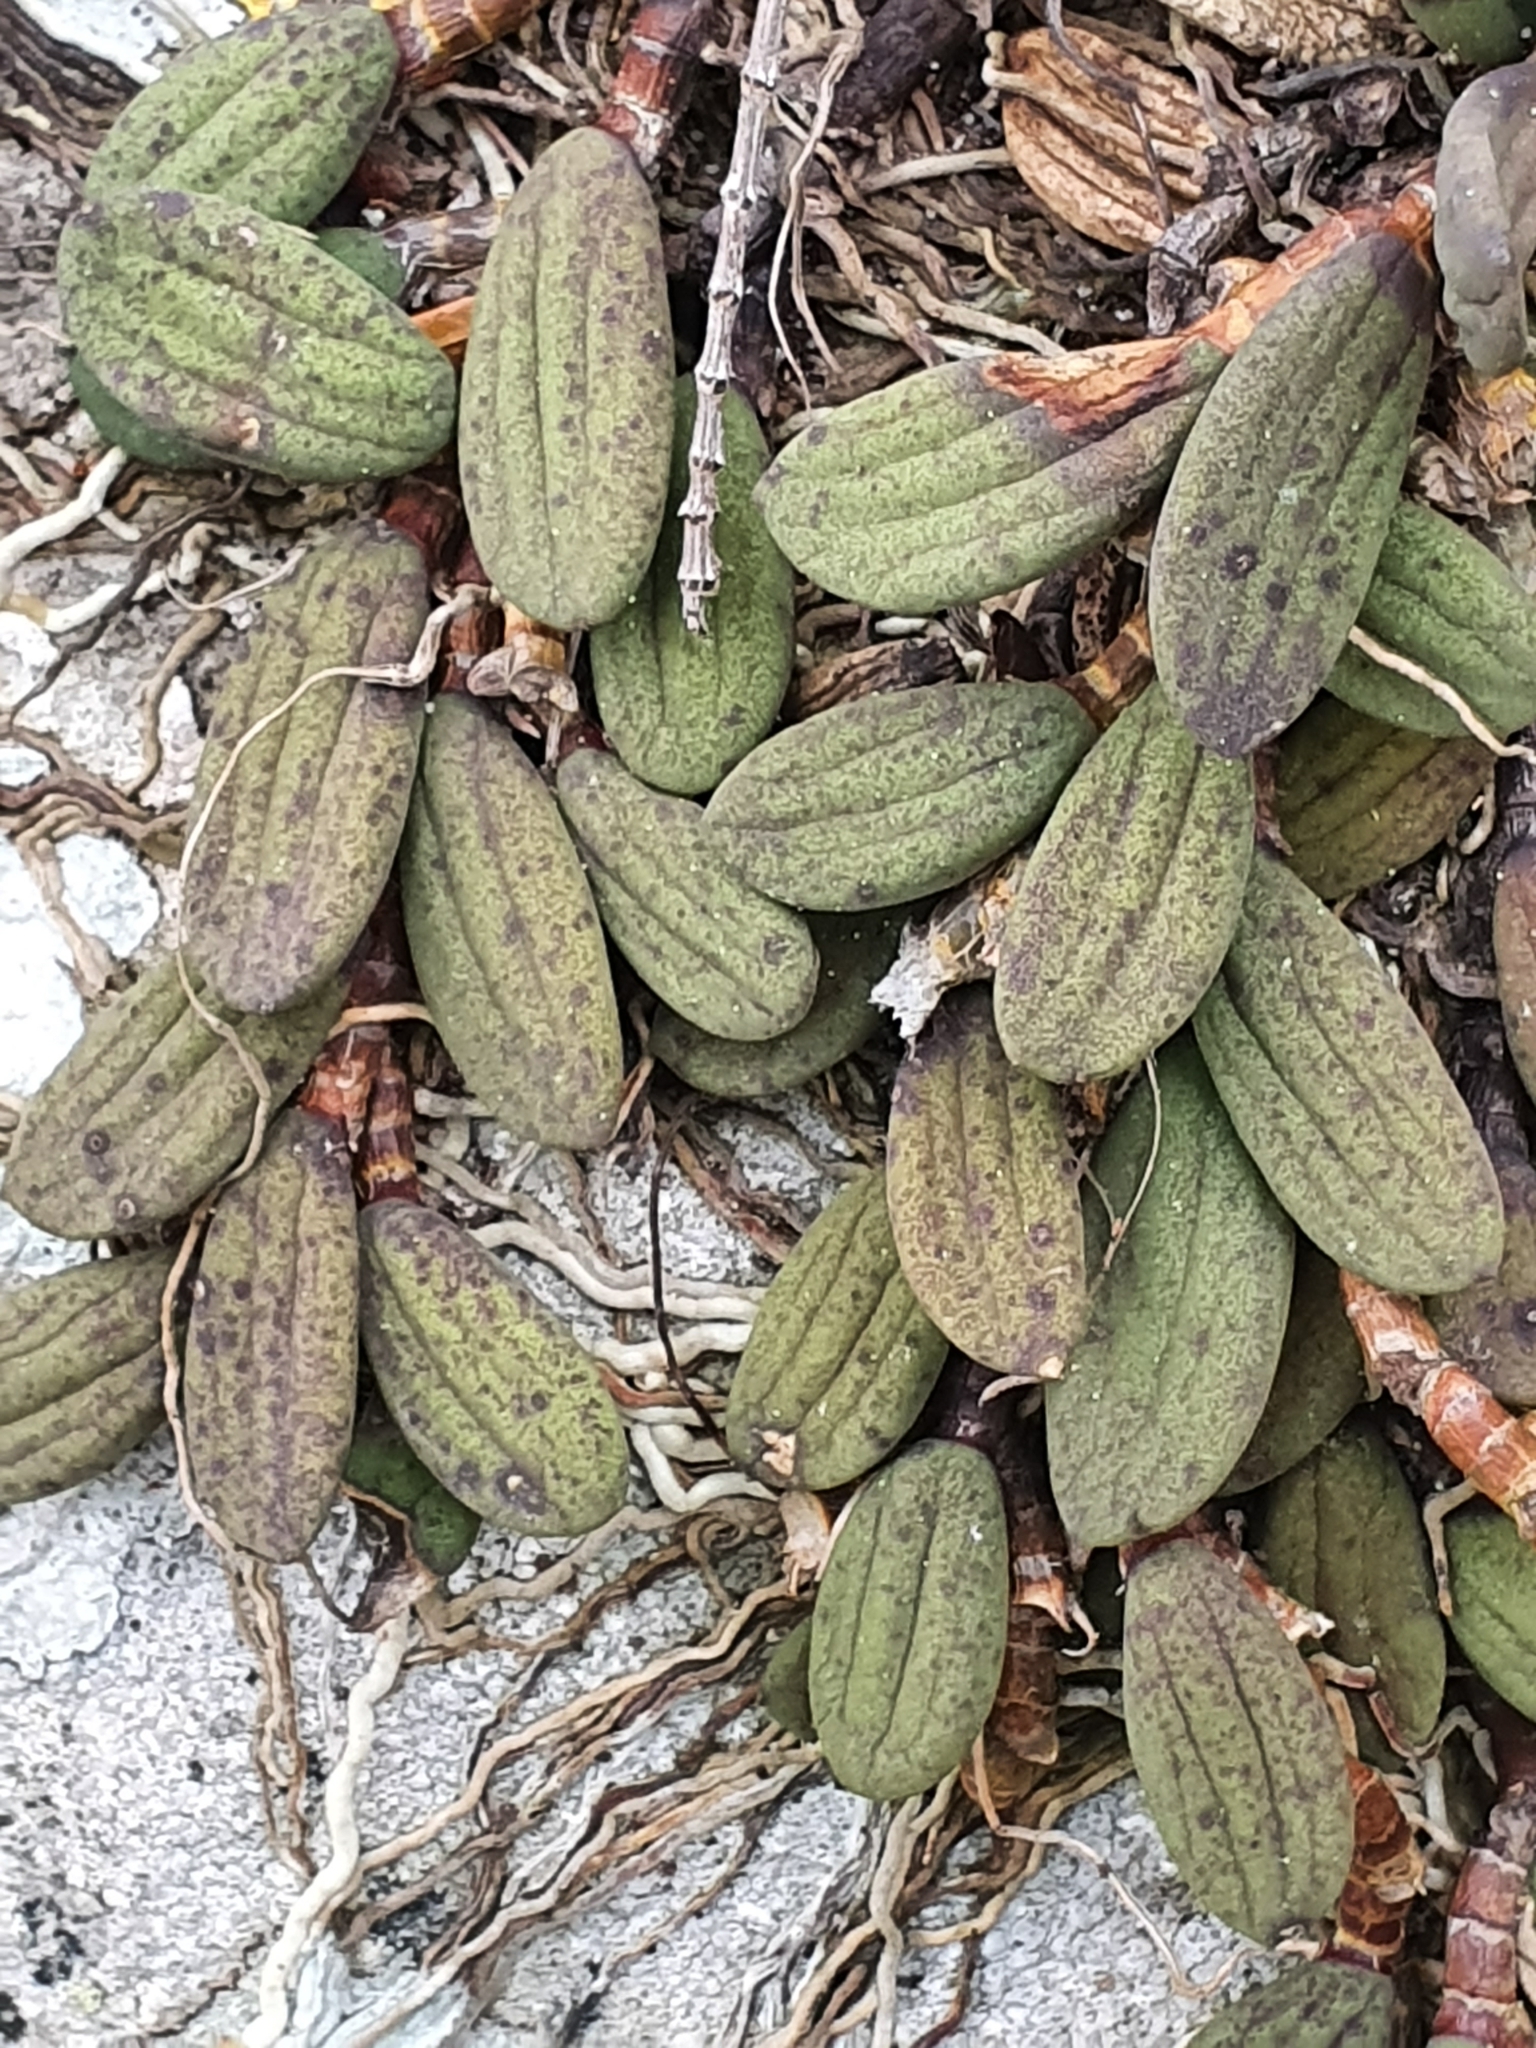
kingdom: Plantae
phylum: Tracheophyta
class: Liliopsida
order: Asparagales
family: Orchidaceae
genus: Dendrobium
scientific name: Dendrobium linguiforme
